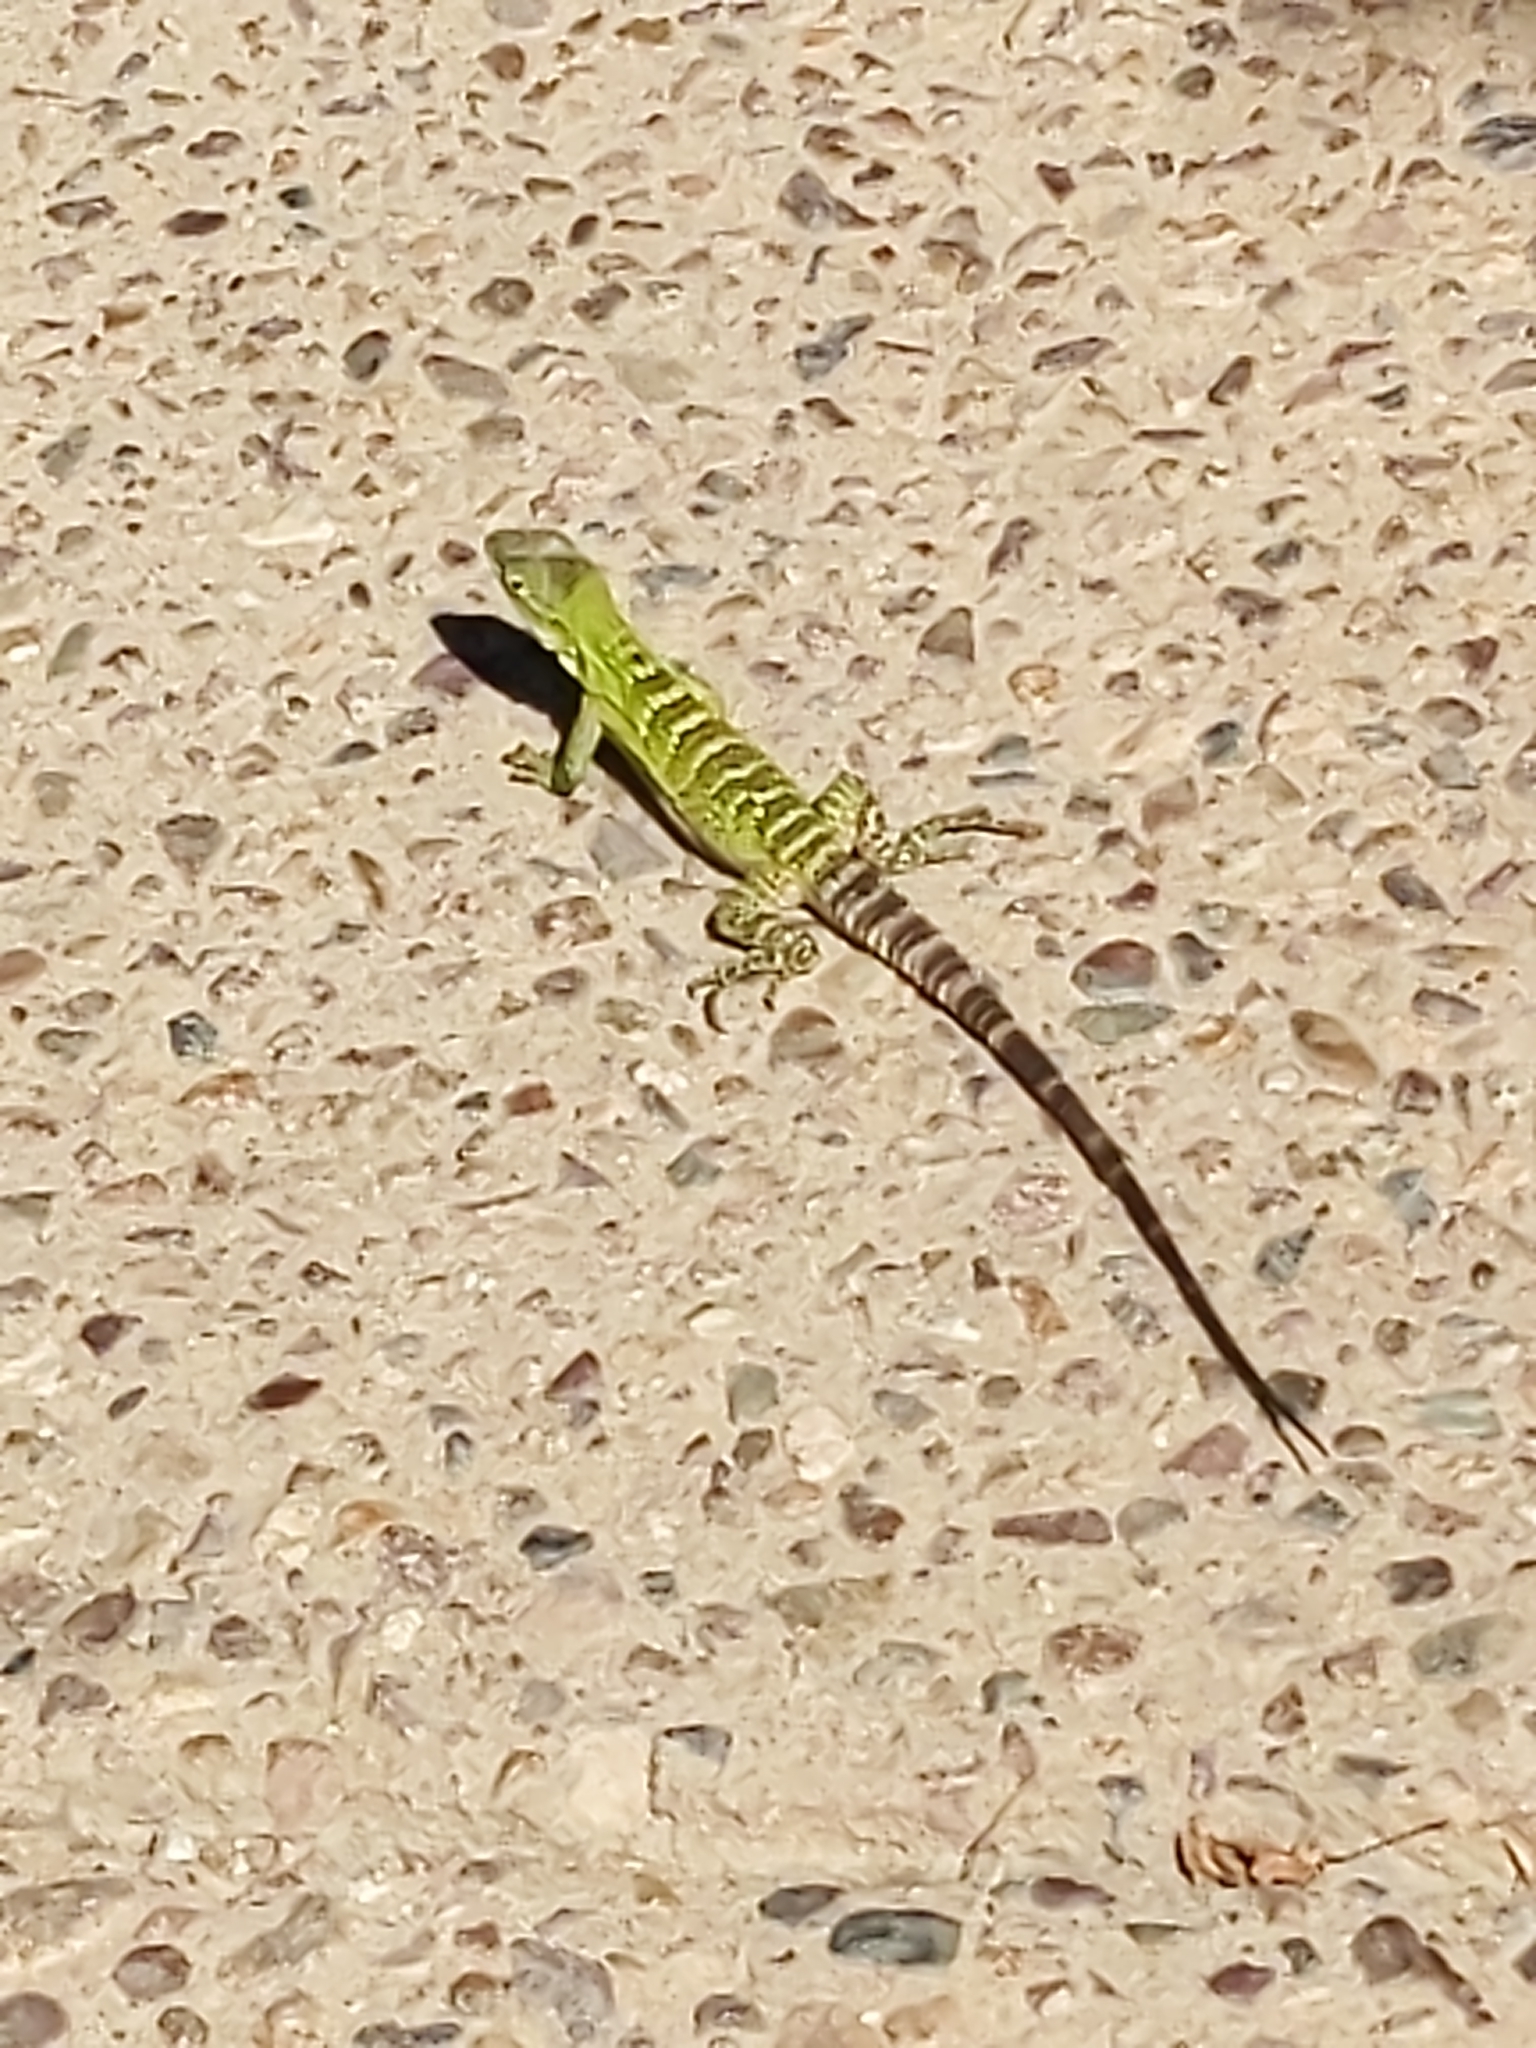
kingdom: Animalia
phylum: Chordata
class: Squamata
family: Iguanidae
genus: Ctenosaura
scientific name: Ctenosaura
